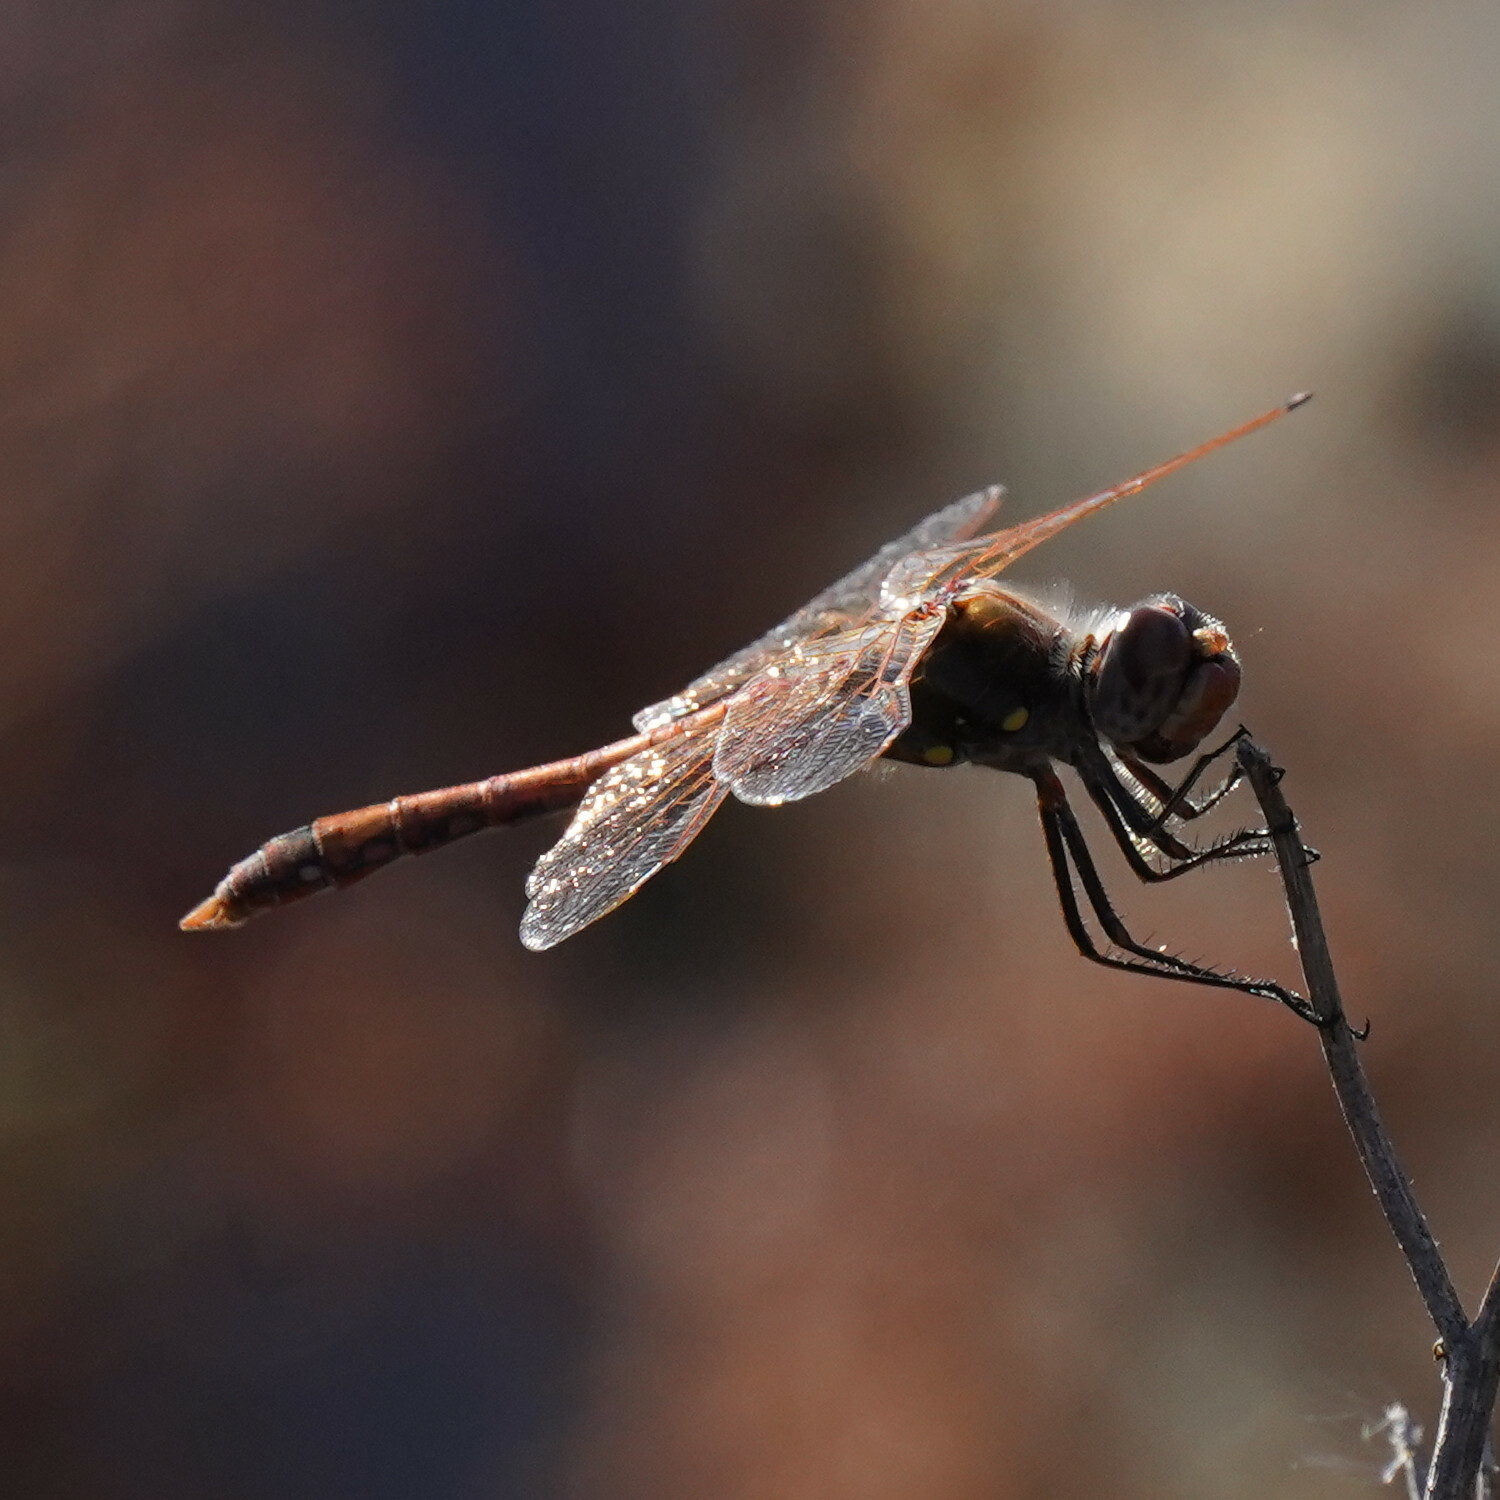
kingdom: Animalia
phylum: Arthropoda
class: Insecta
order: Odonata
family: Libellulidae
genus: Sympetrum
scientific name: Sympetrum corruptum
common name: Variegated meadowhawk
